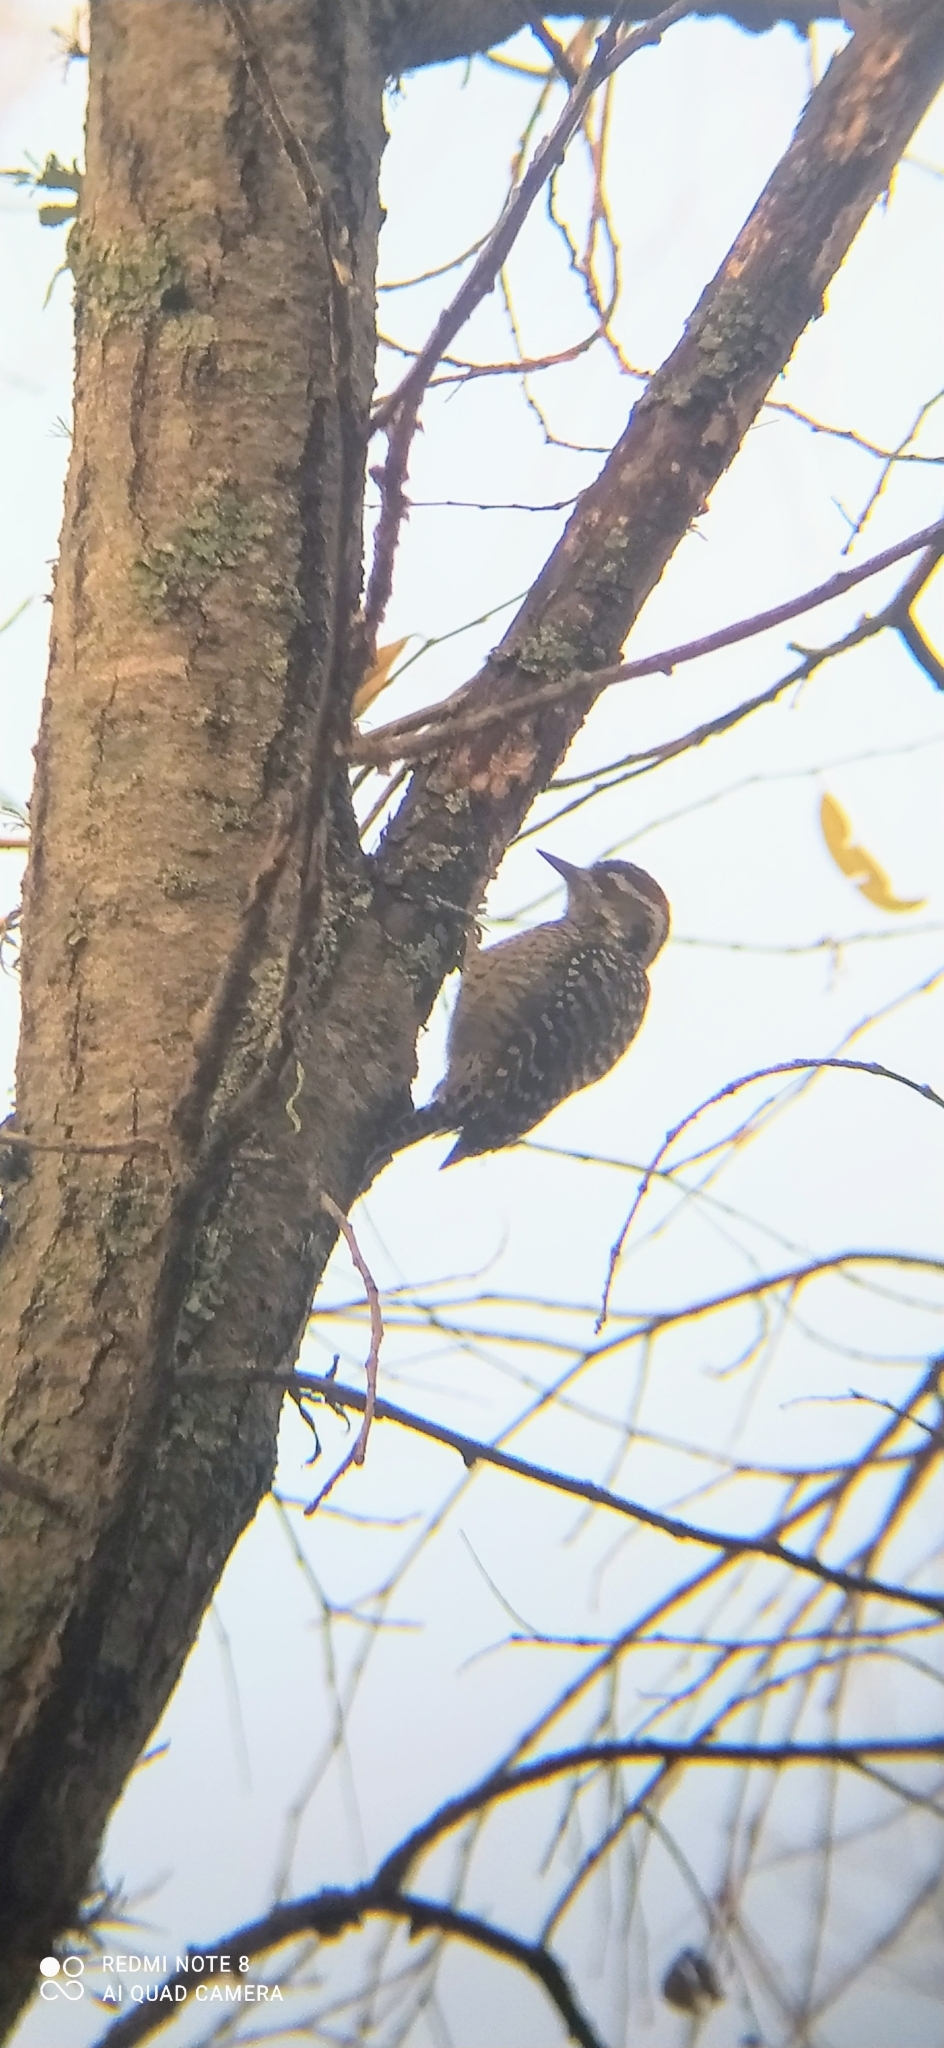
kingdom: Animalia
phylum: Chordata
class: Aves
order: Piciformes
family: Picidae
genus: Veniliornis
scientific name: Veniliornis mixtus
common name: Checkered woodpecker
